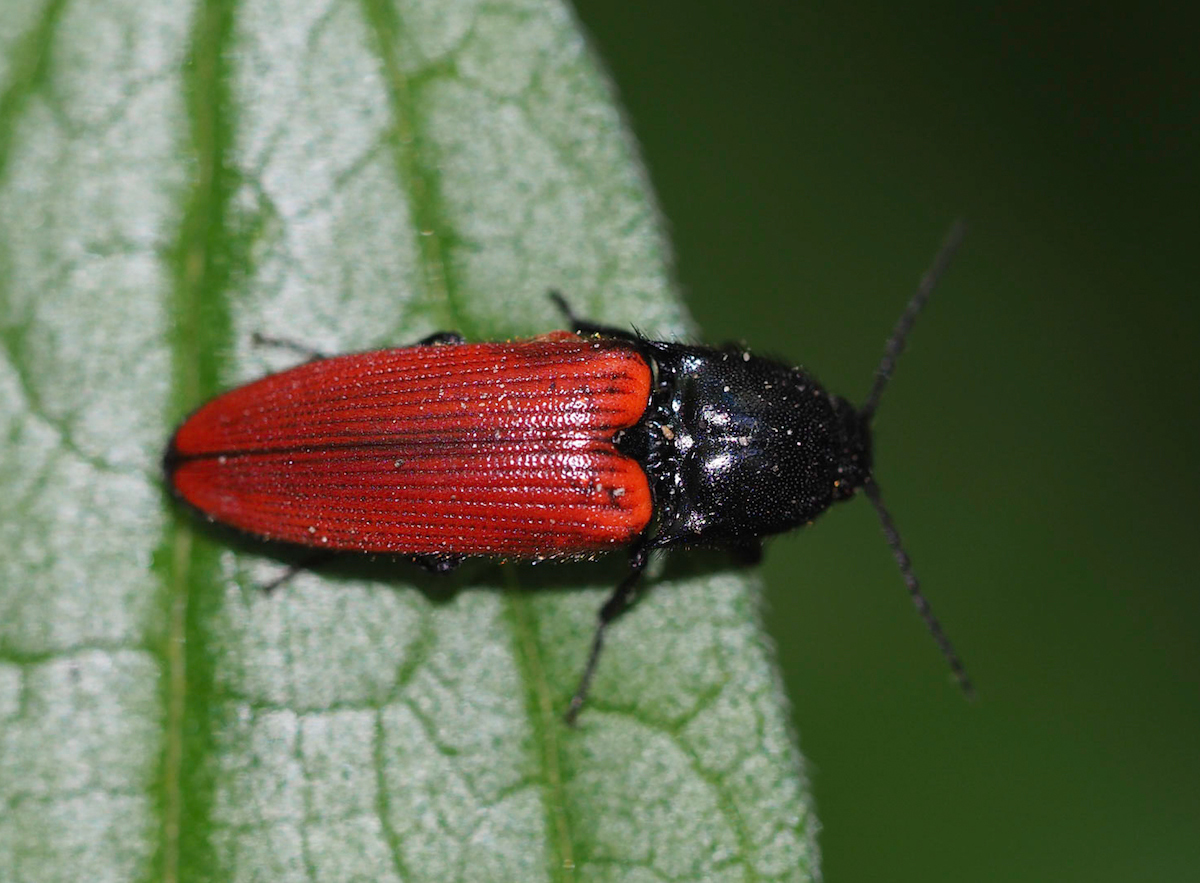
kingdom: Animalia
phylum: Arthropoda
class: Insecta
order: Coleoptera
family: Elateridae
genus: Ampedus
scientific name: Ampedus sanguineus
